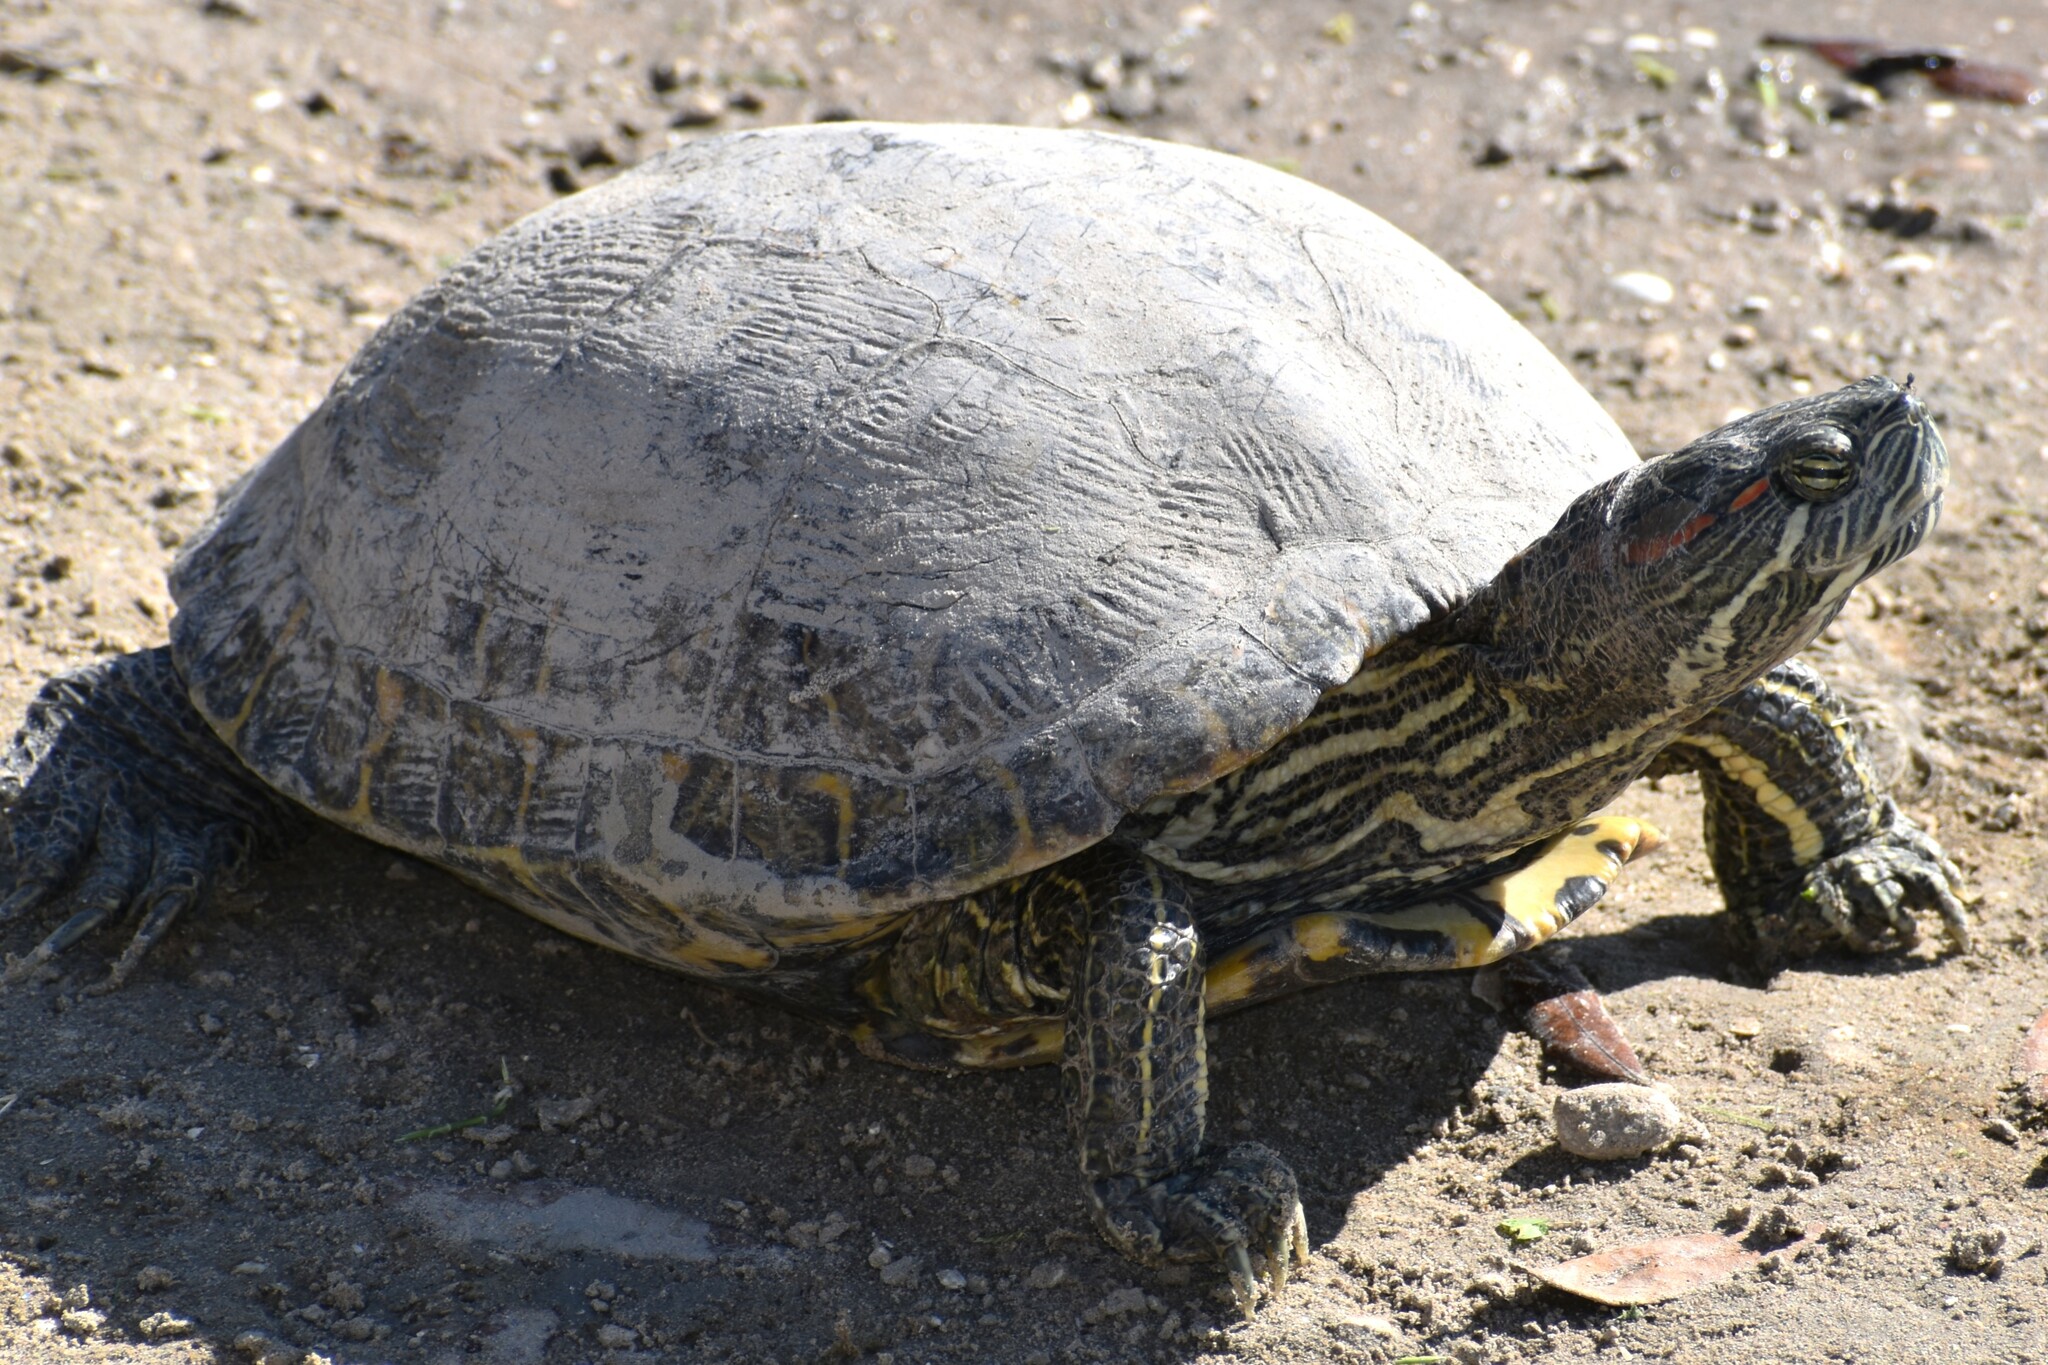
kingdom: Animalia
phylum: Chordata
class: Testudines
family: Emydidae
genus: Trachemys
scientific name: Trachemys scripta
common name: Slider
